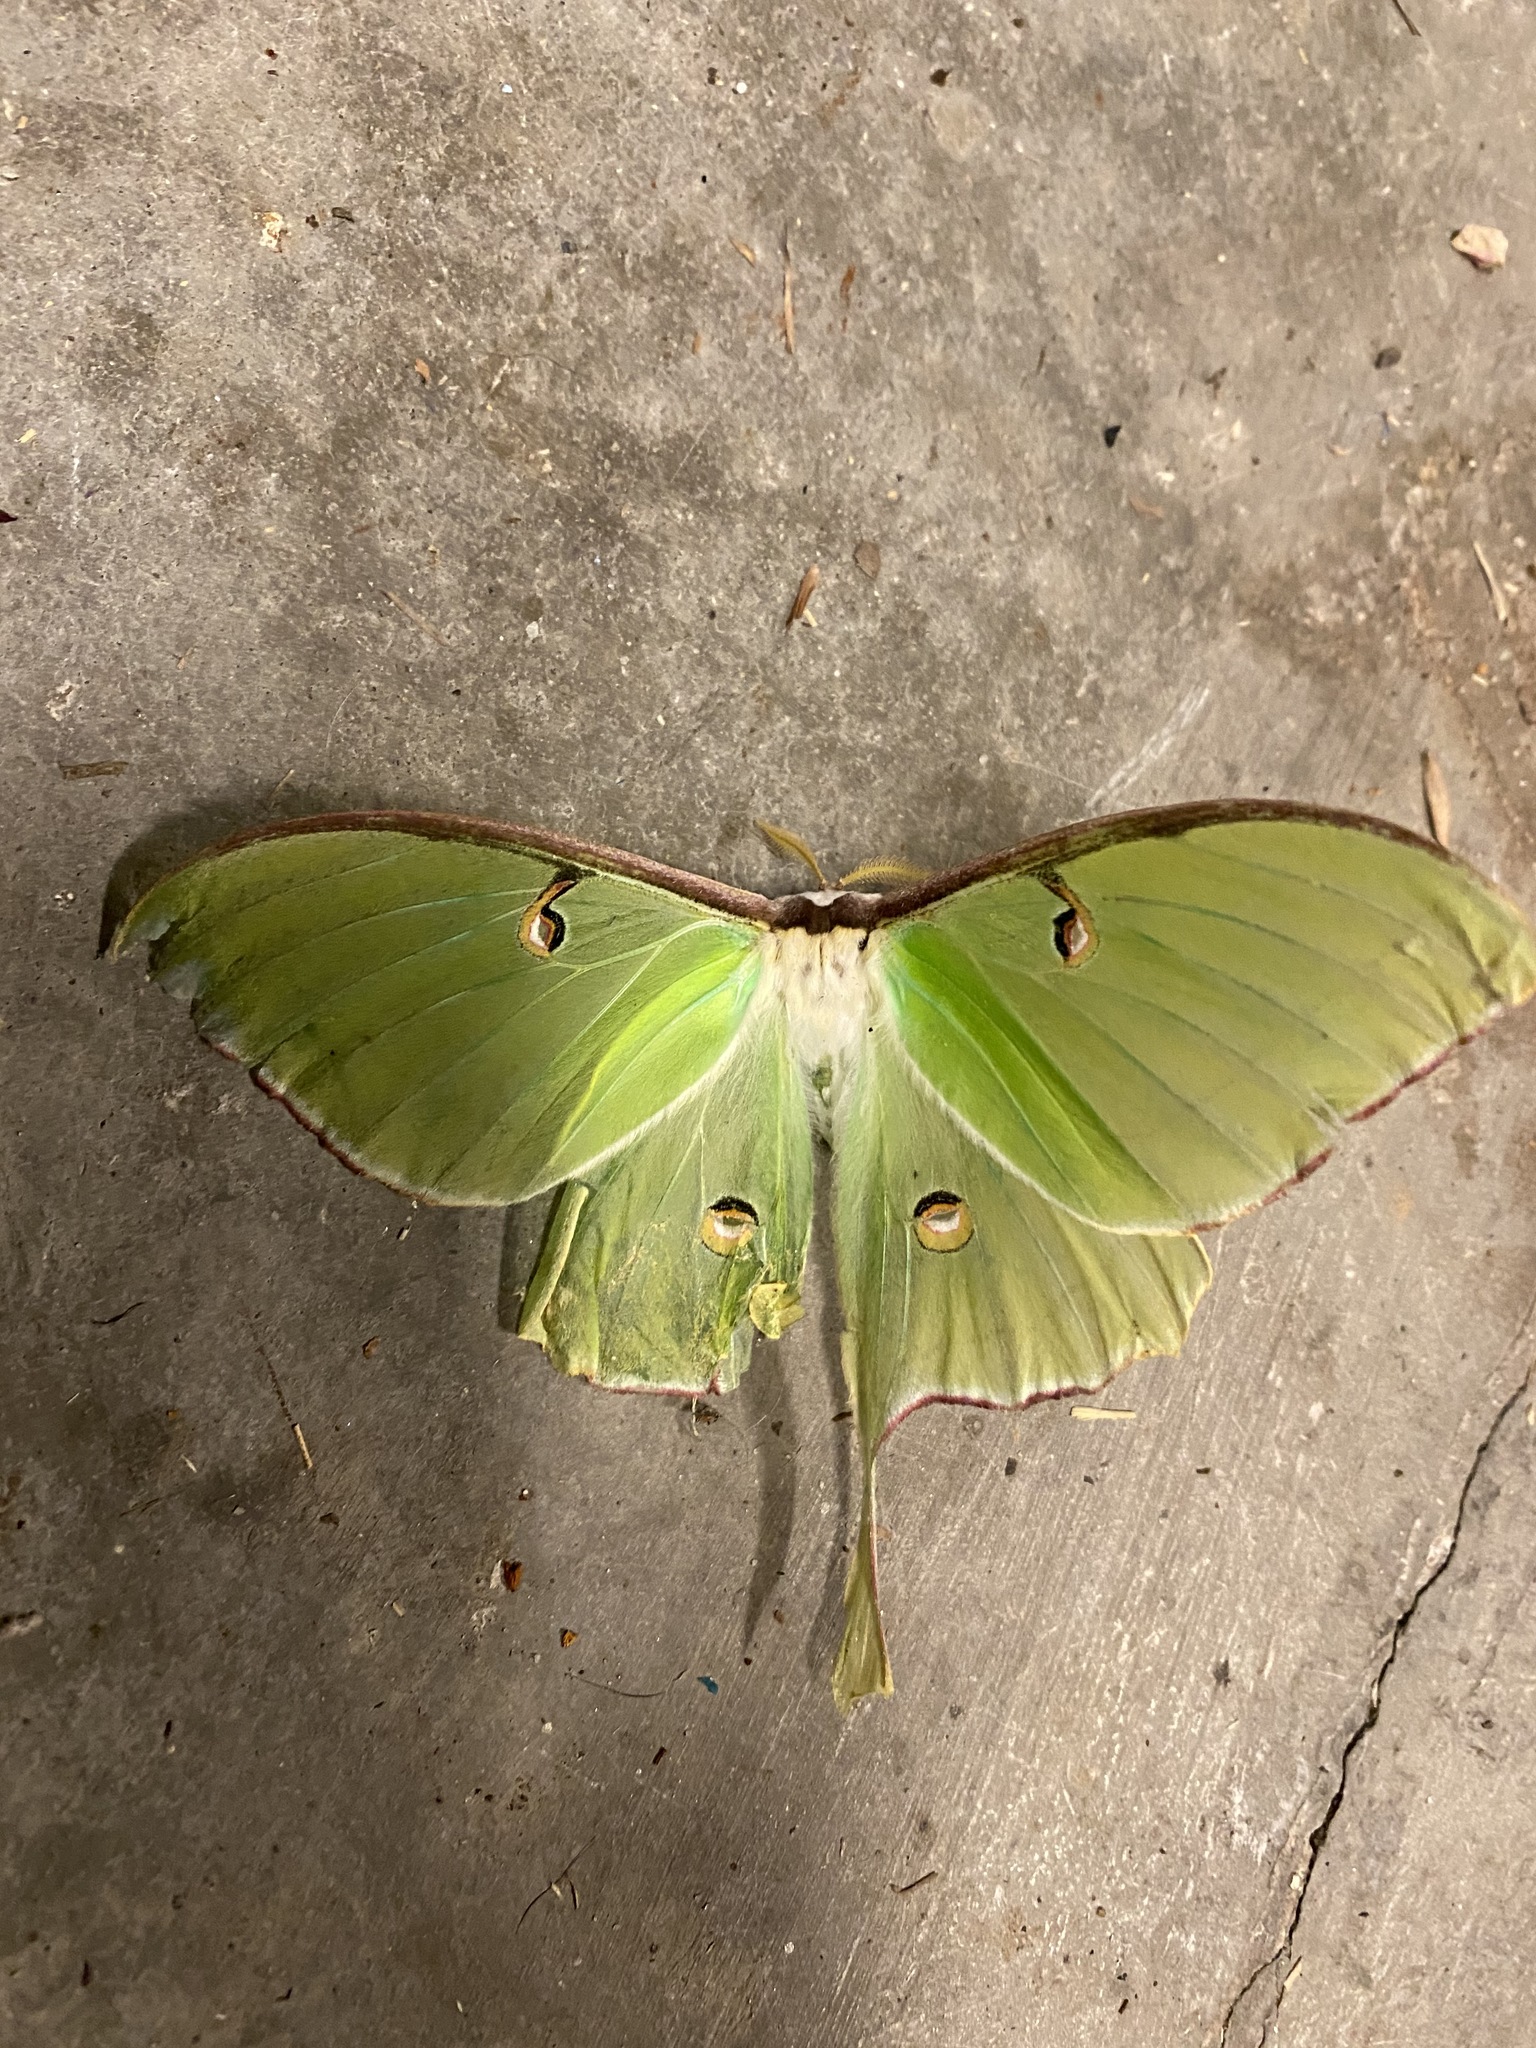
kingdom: Animalia
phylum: Arthropoda
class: Insecta
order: Lepidoptera
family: Saturniidae
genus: Actias
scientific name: Actias luna
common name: Luna moth
